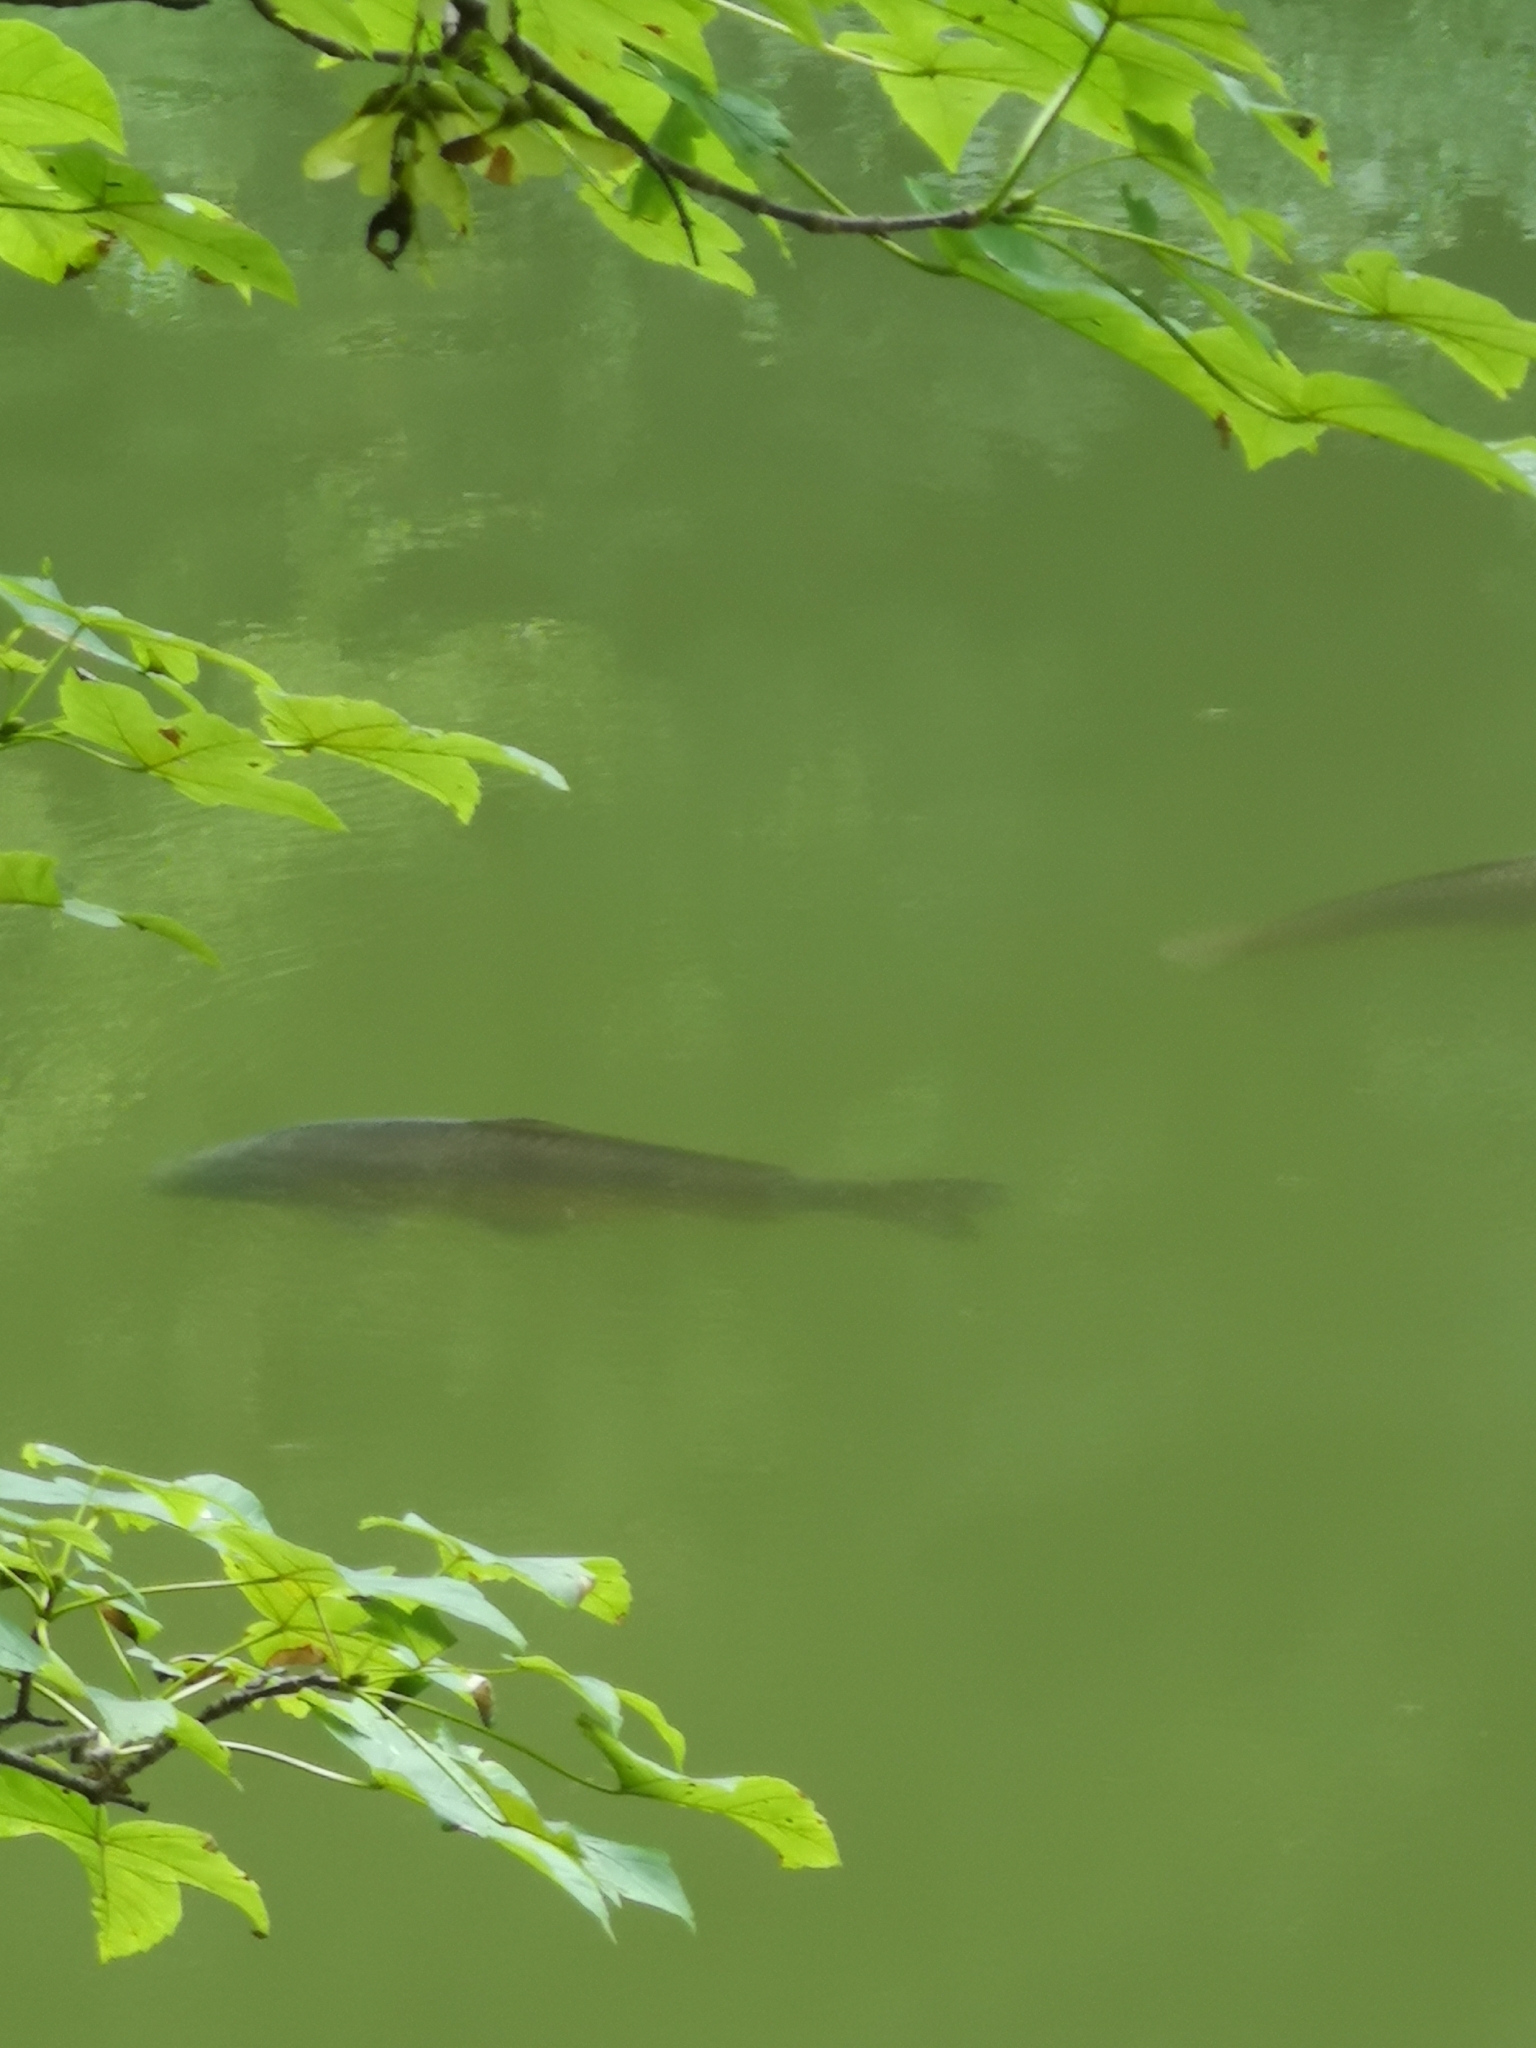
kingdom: Animalia
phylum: Chordata
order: Cypriniformes
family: Cyprinidae
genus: Cyprinus
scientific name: Cyprinus carpio
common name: Common carp
